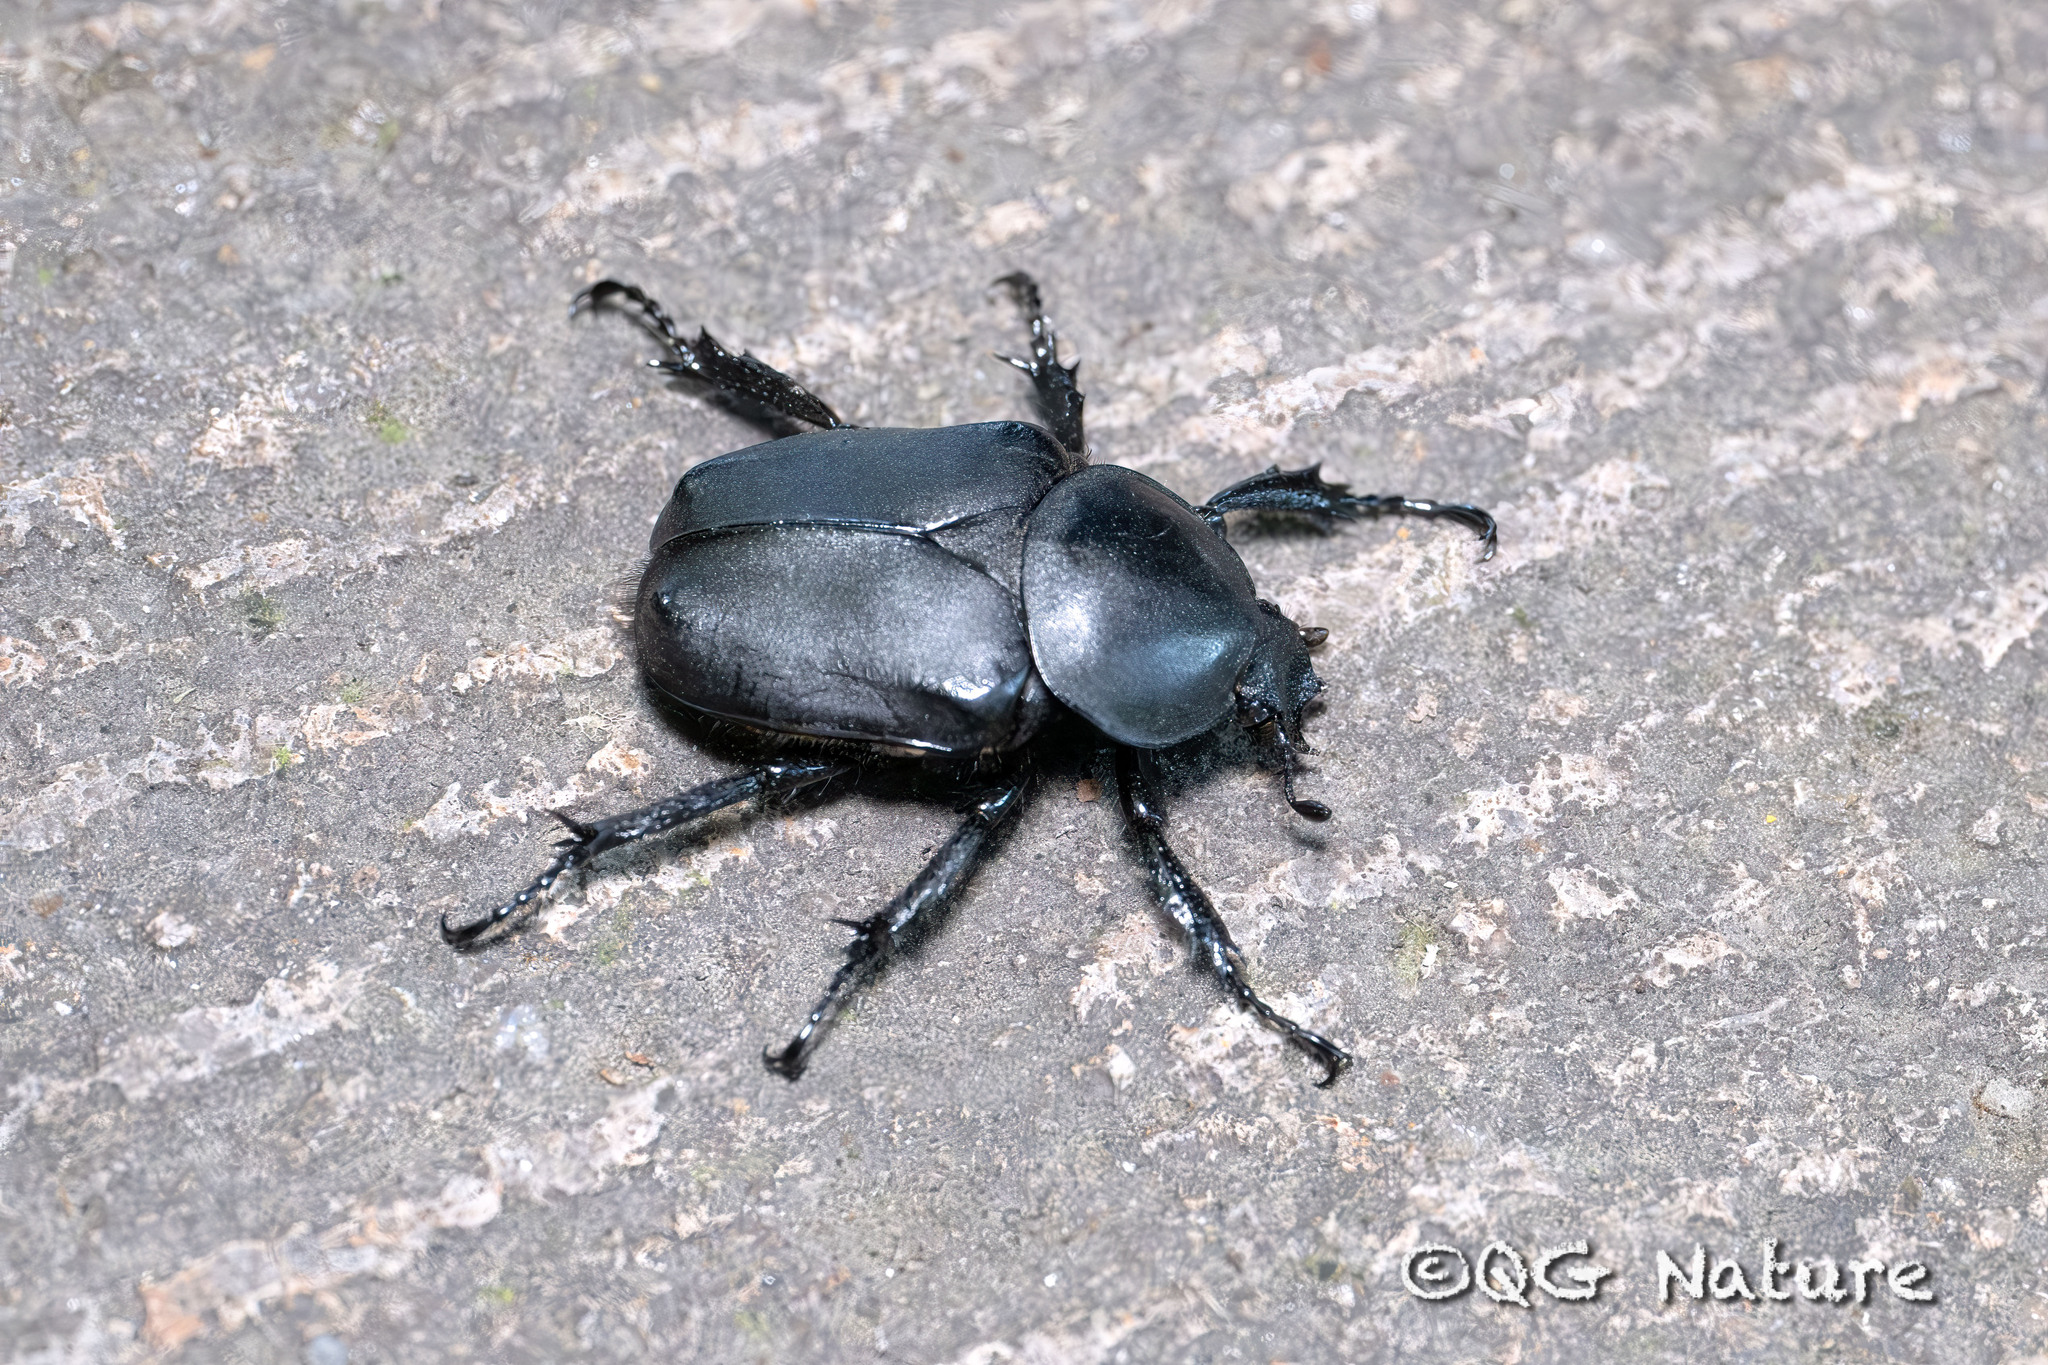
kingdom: Animalia
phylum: Arthropoda
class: Insecta
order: Coleoptera
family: Scarabaeidae
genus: Dicronocephalus
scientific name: Dicronocephalus adamsi
